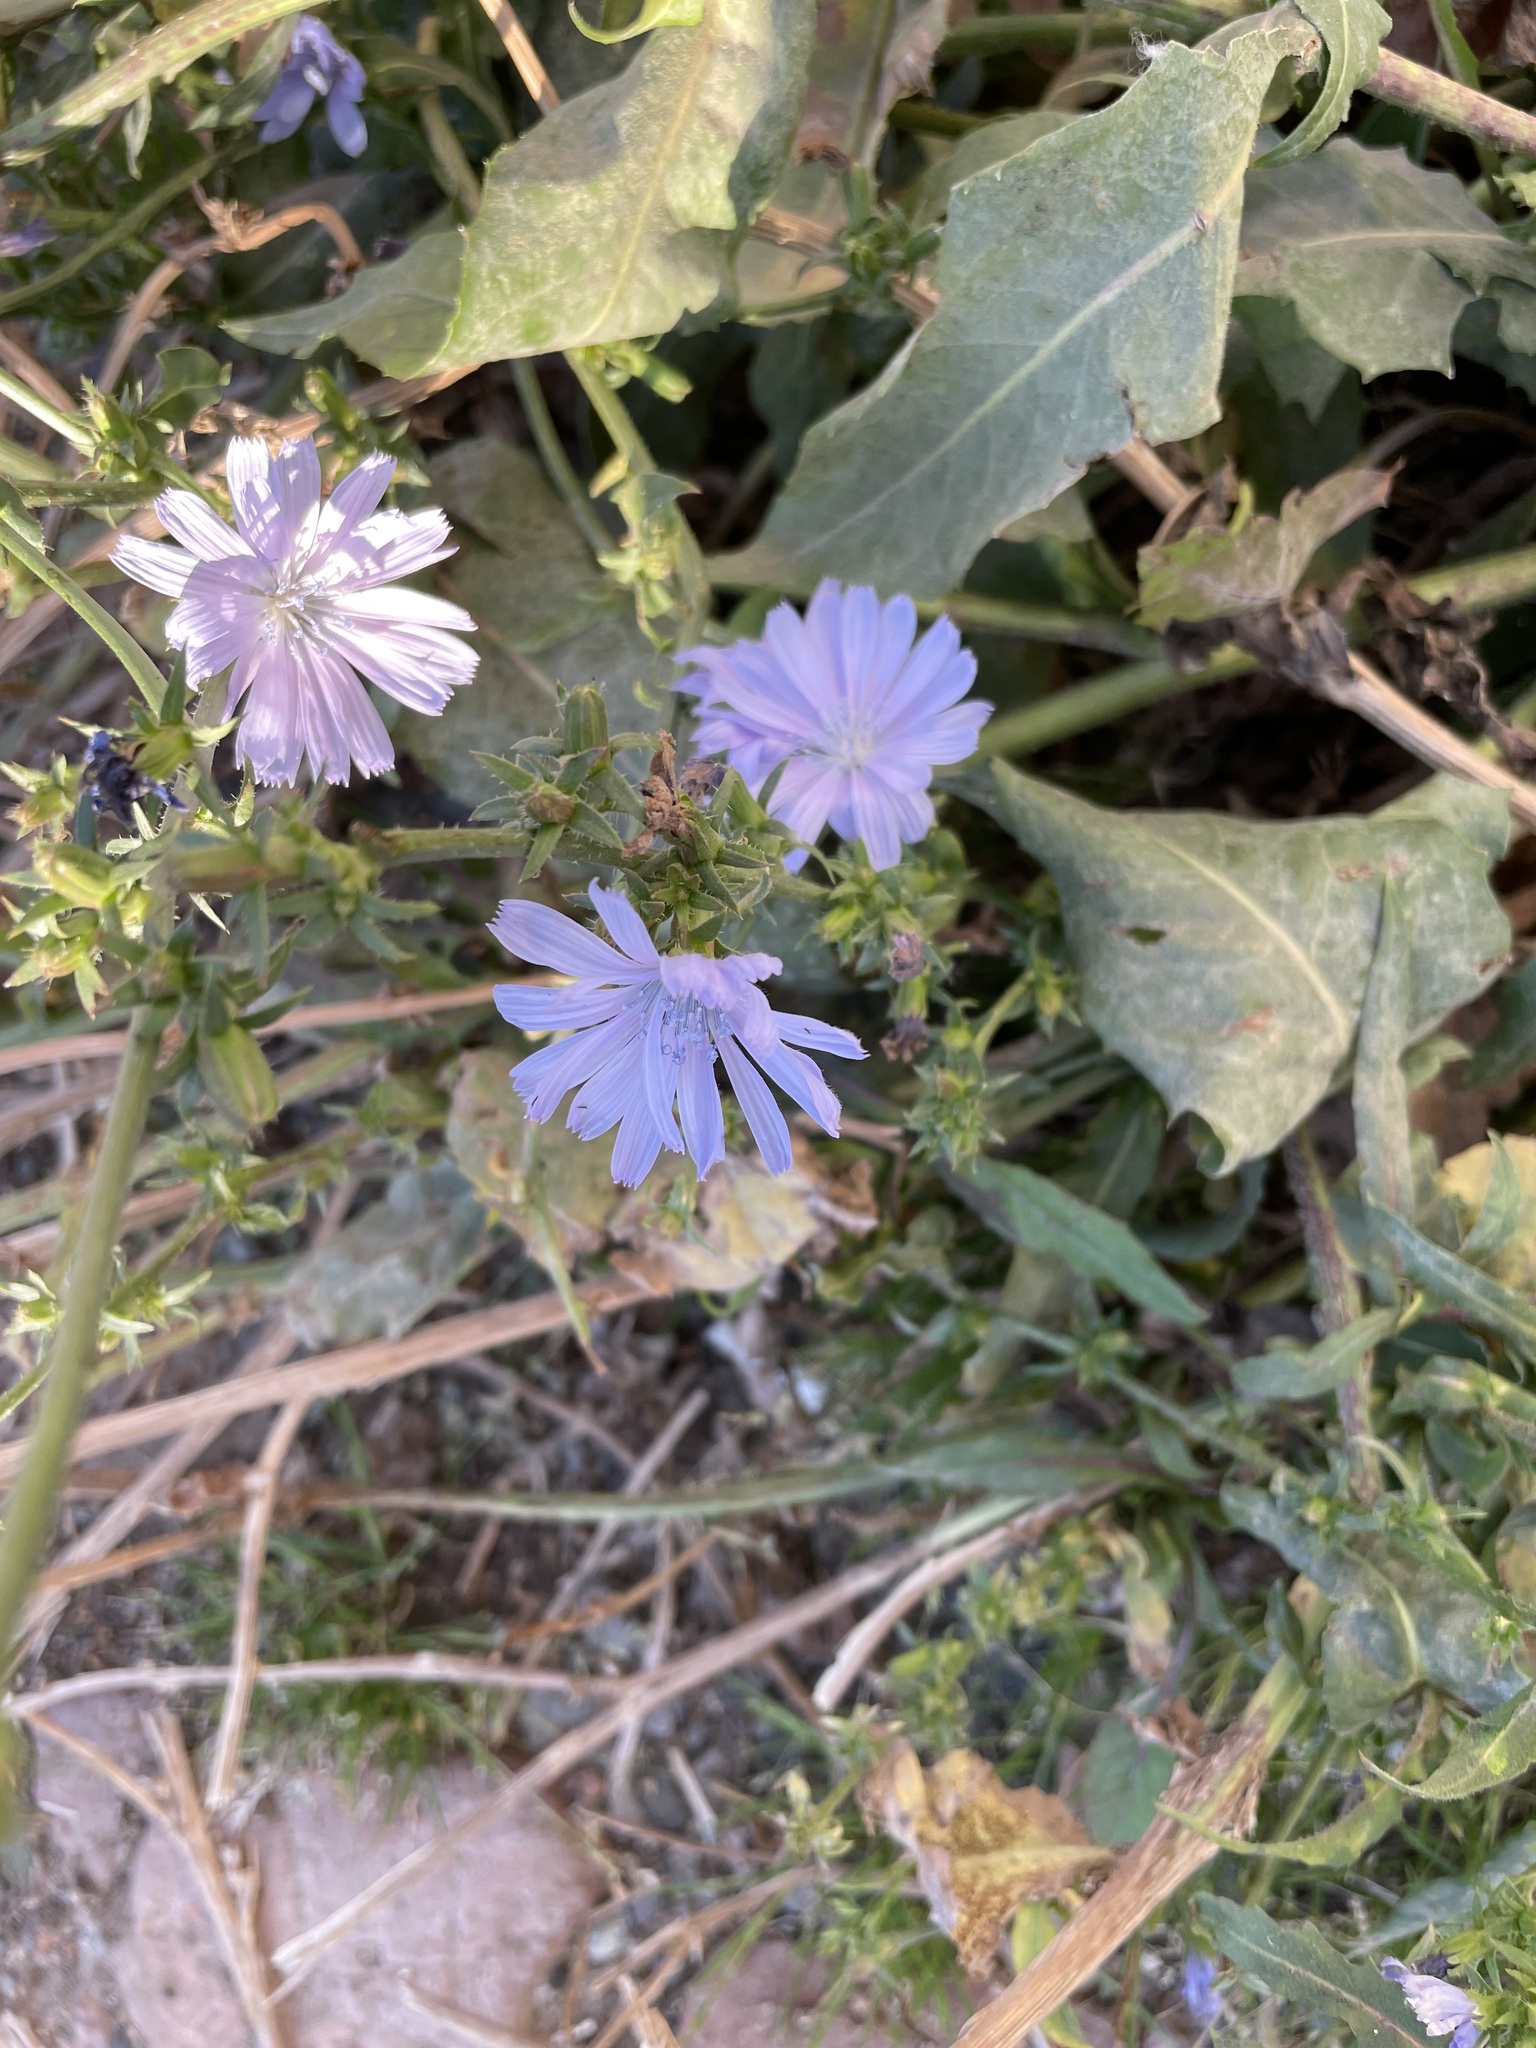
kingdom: Plantae
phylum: Tracheophyta
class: Magnoliopsida
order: Asterales
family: Asteraceae
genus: Cichorium
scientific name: Cichorium intybus
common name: Chicory
